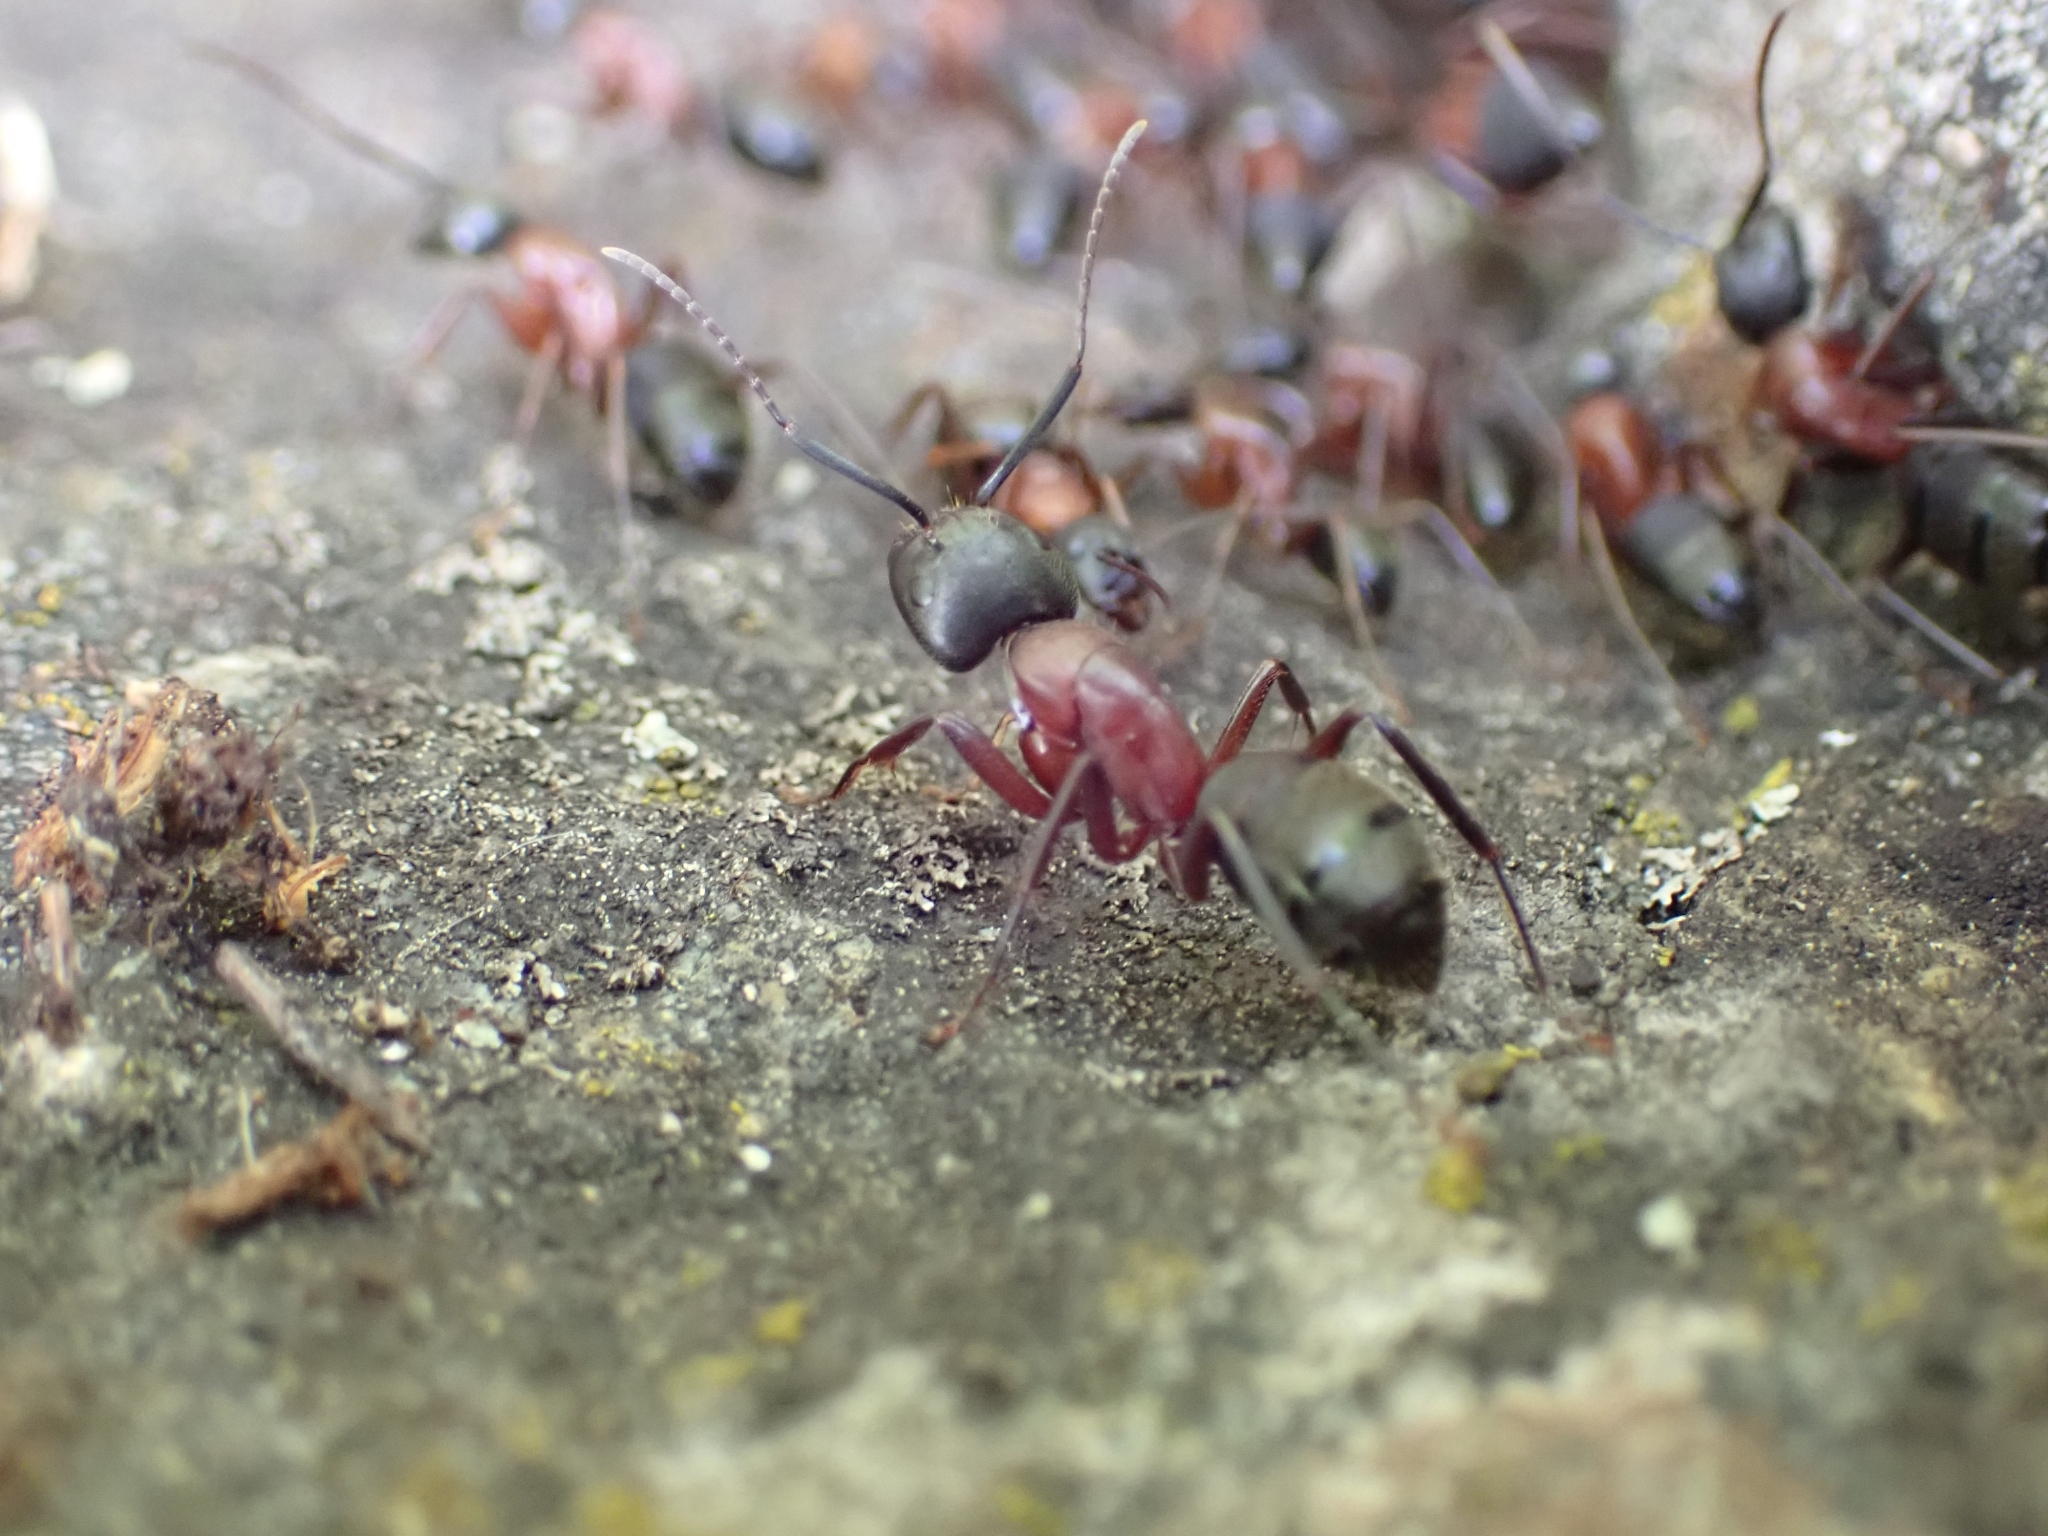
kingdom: Animalia
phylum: Arthropoda
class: Insecta
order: Hymenoptera
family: Formicidae
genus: Camponotus
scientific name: Camponotus vicinus
